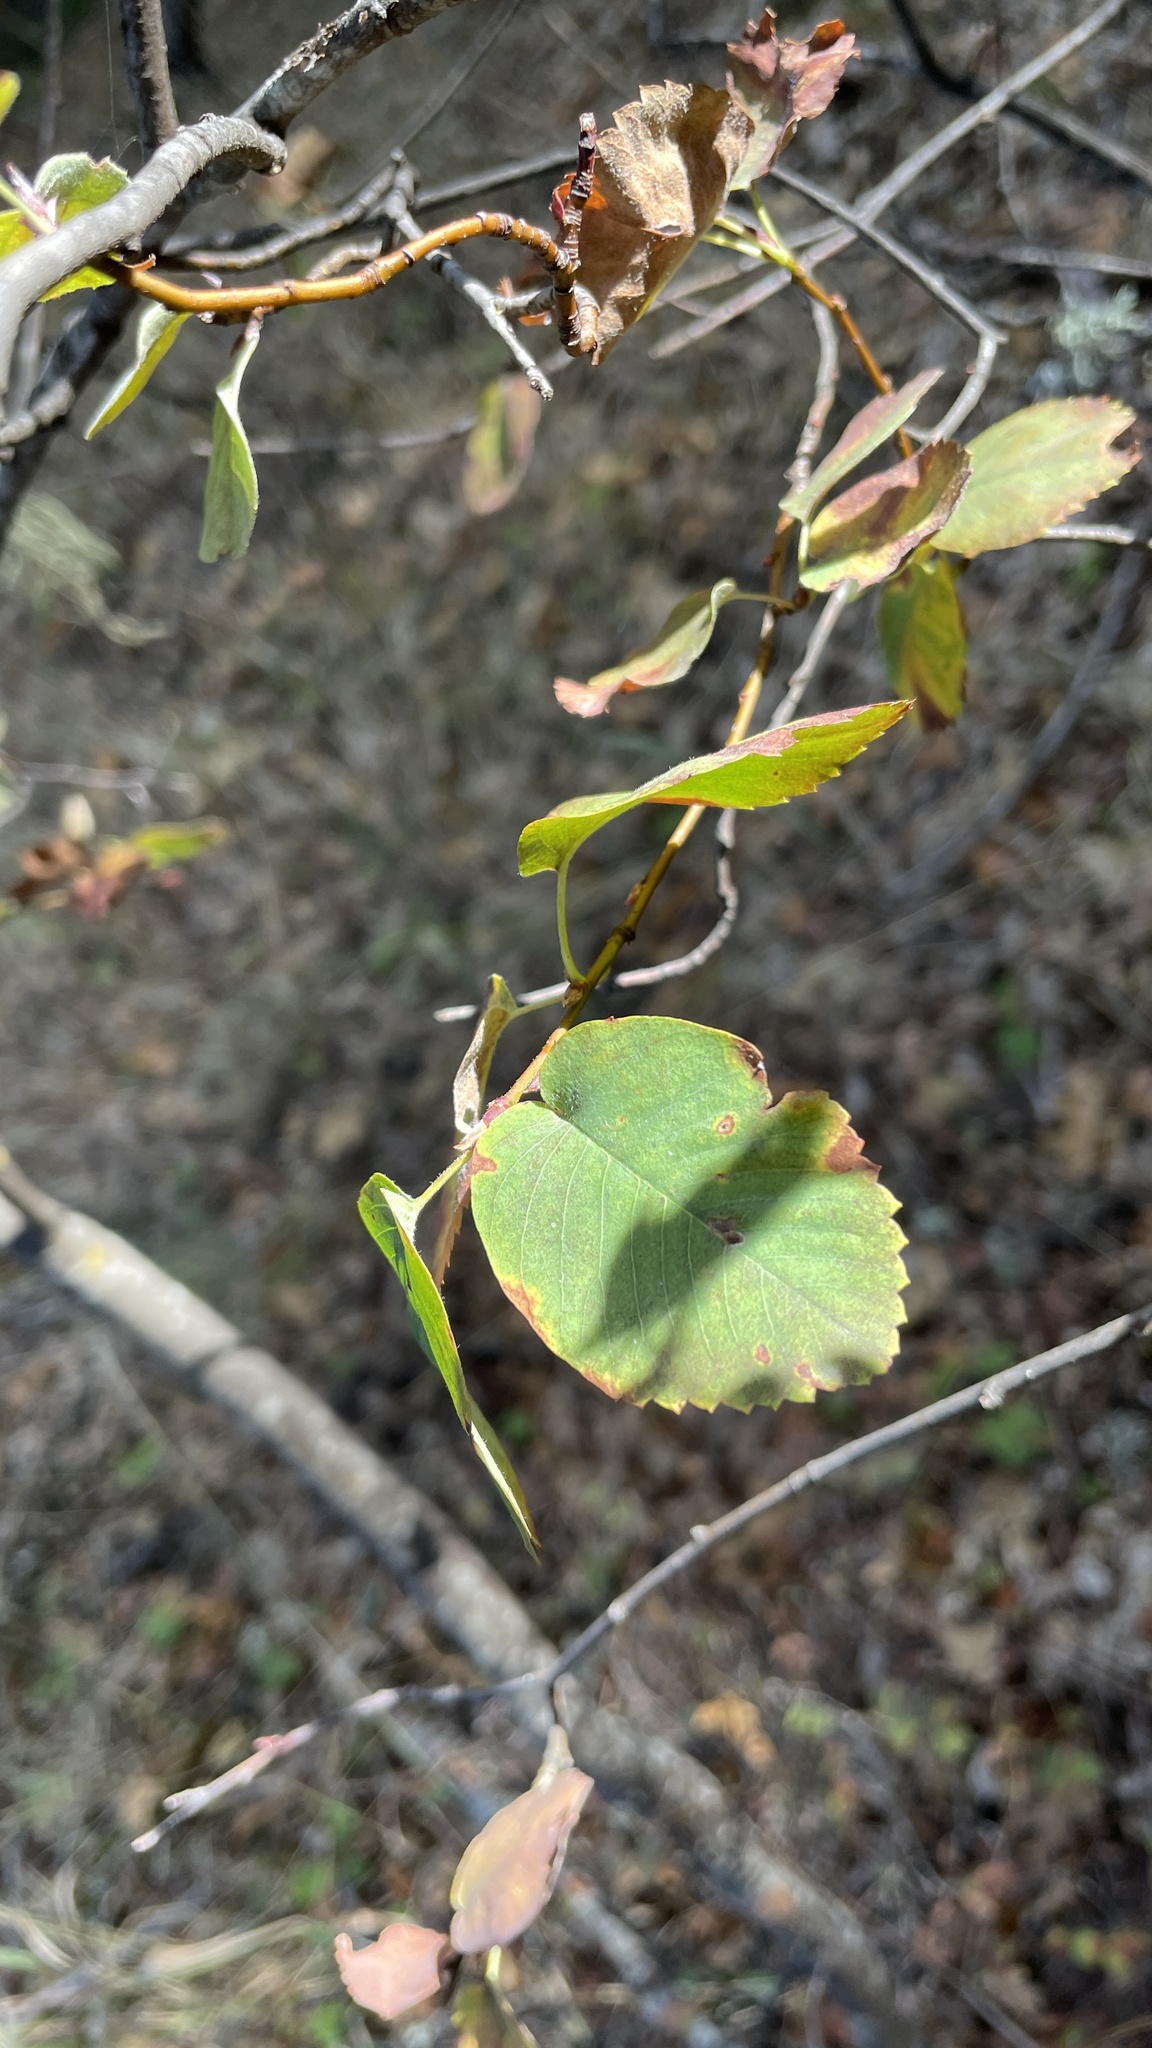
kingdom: Plantae
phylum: Tracheophyta
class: Magnoliopsida
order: Rosales
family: Rosaceae
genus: Amelanchier
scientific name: Amelanchier alnifolia
